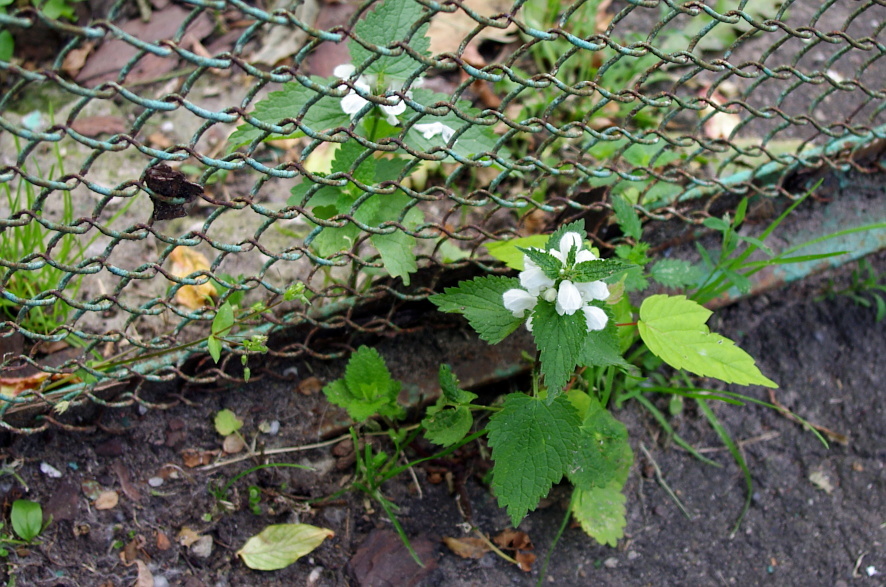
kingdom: Plantae
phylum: Tracheophyta
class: Magnoliopsida
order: Lamiales
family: Lamiaceae
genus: Lamium
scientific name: Lamium album
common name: White dead-nettle
